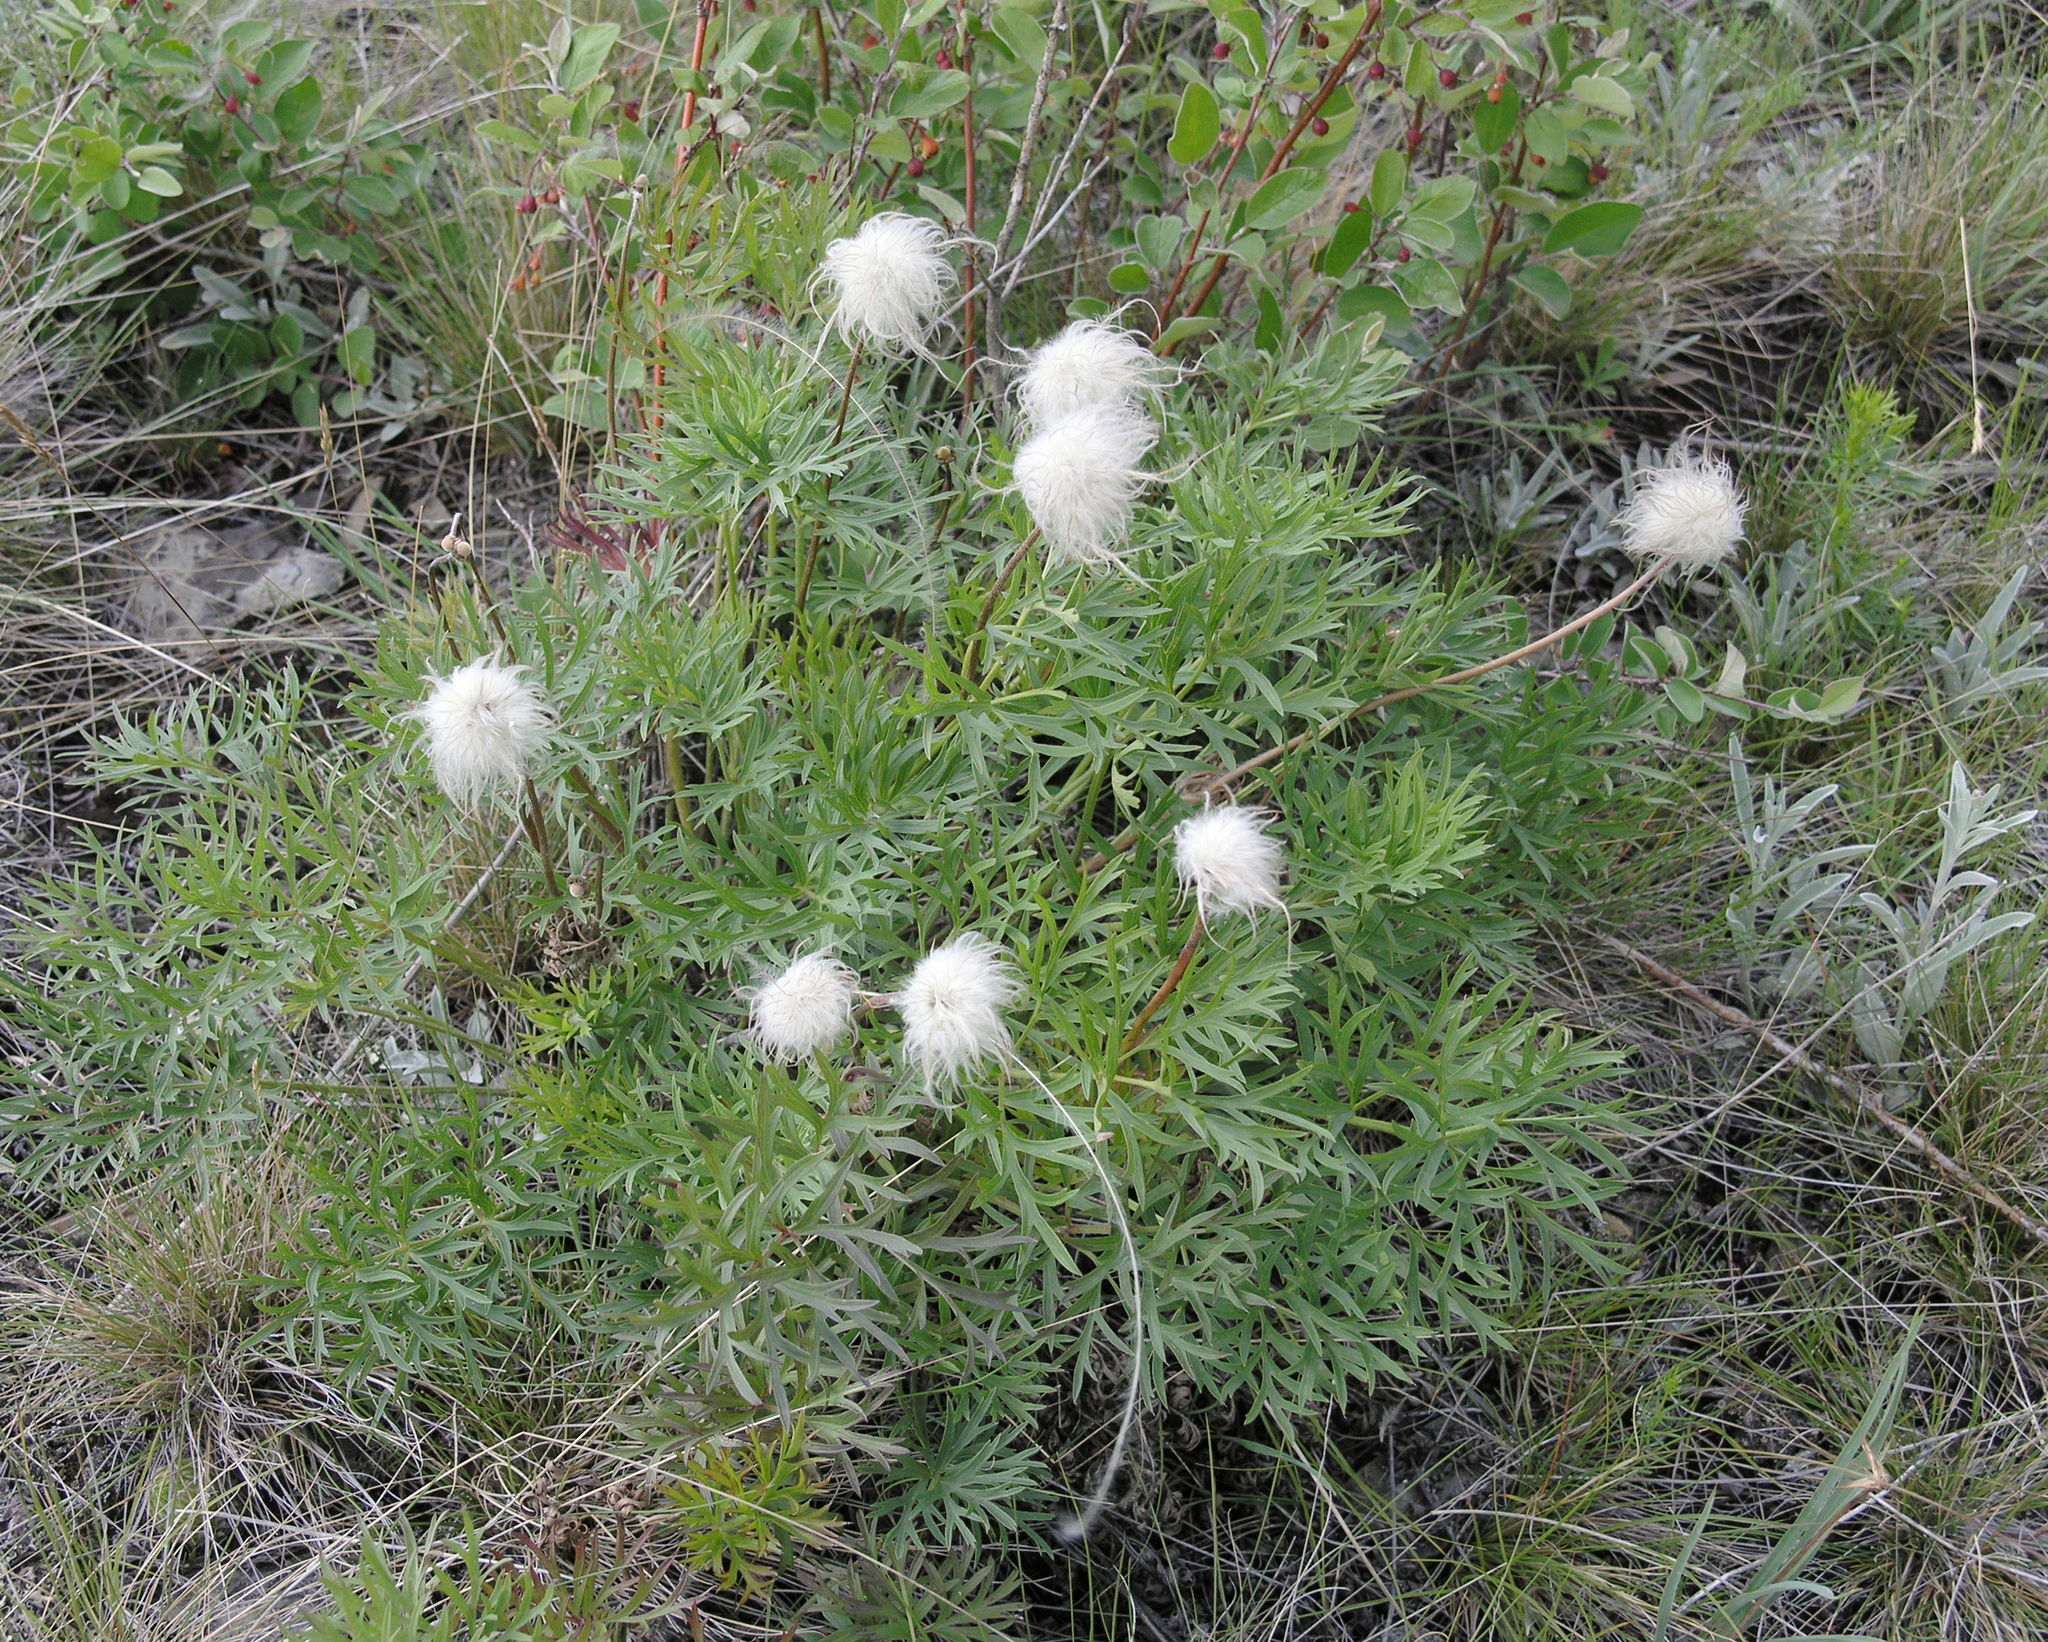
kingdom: Plantae
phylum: Tracheophyta
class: Magnoliopsida
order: Ranunculales
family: Ranunculaceae
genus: Pulsatilla
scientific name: Pulsatilla turczaninovii
